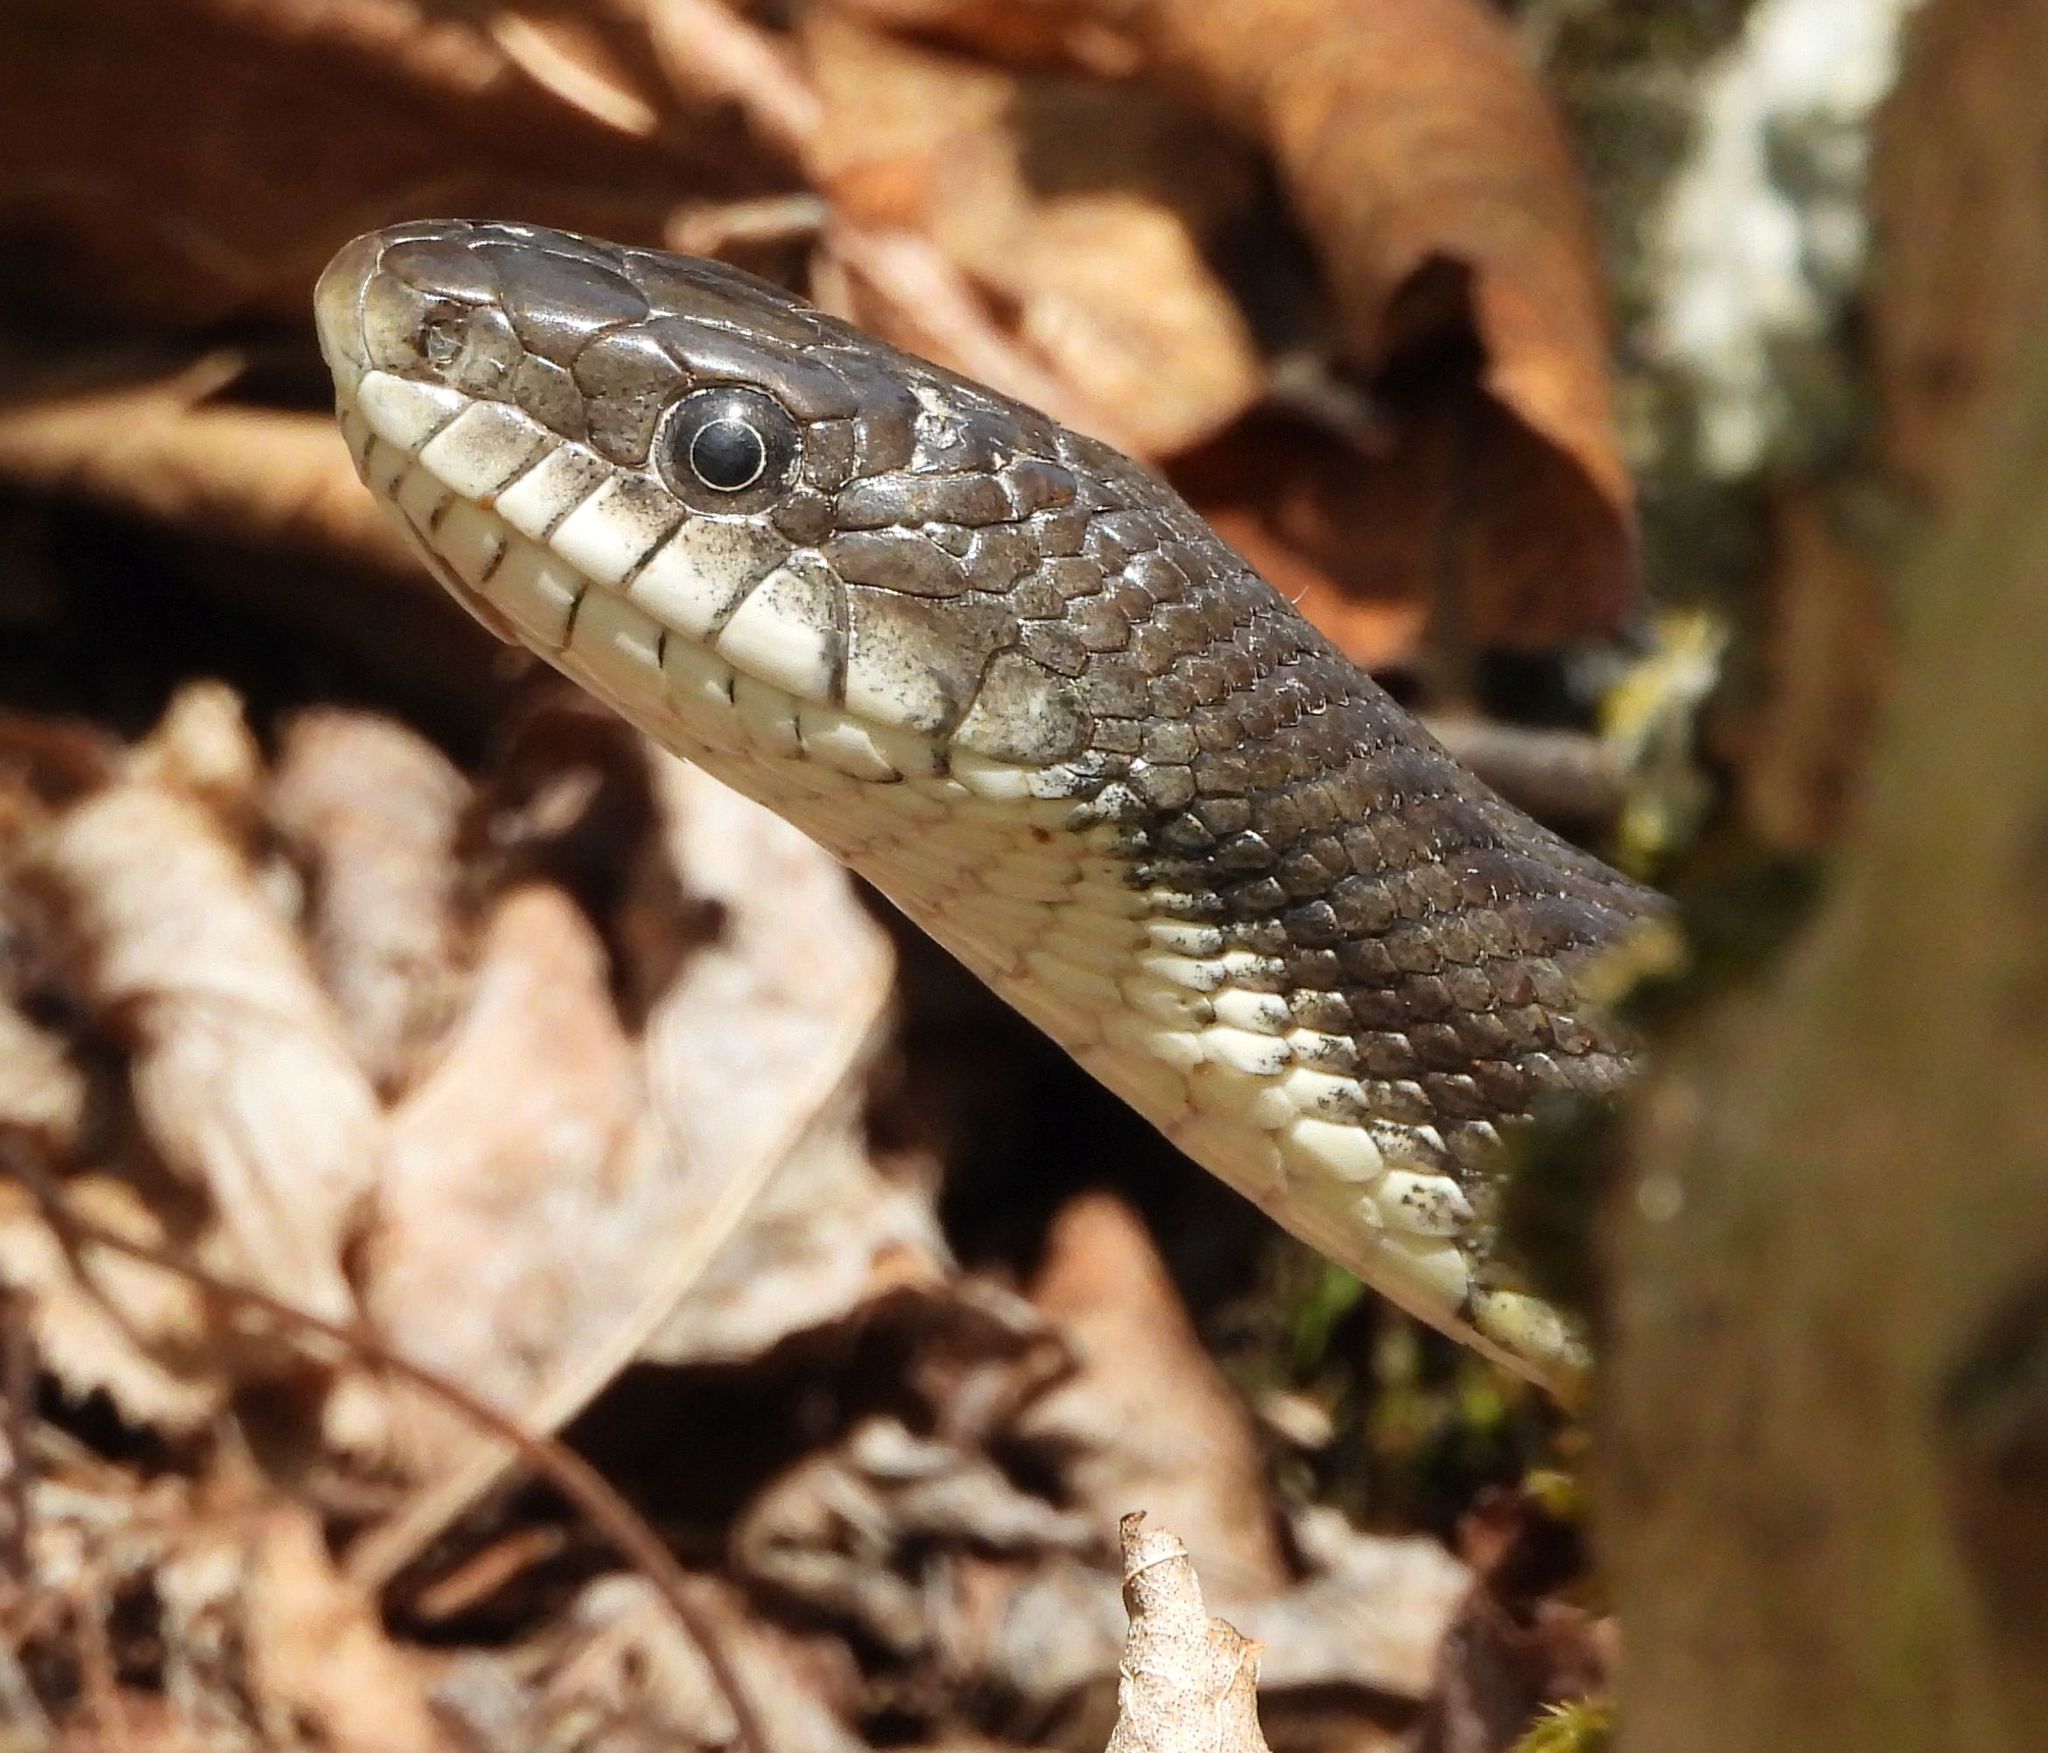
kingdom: Animalia
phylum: Chordata
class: Squamata
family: Colubridae
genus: Pantherophis
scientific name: Pantherophis spiloides
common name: Gray rat snake
